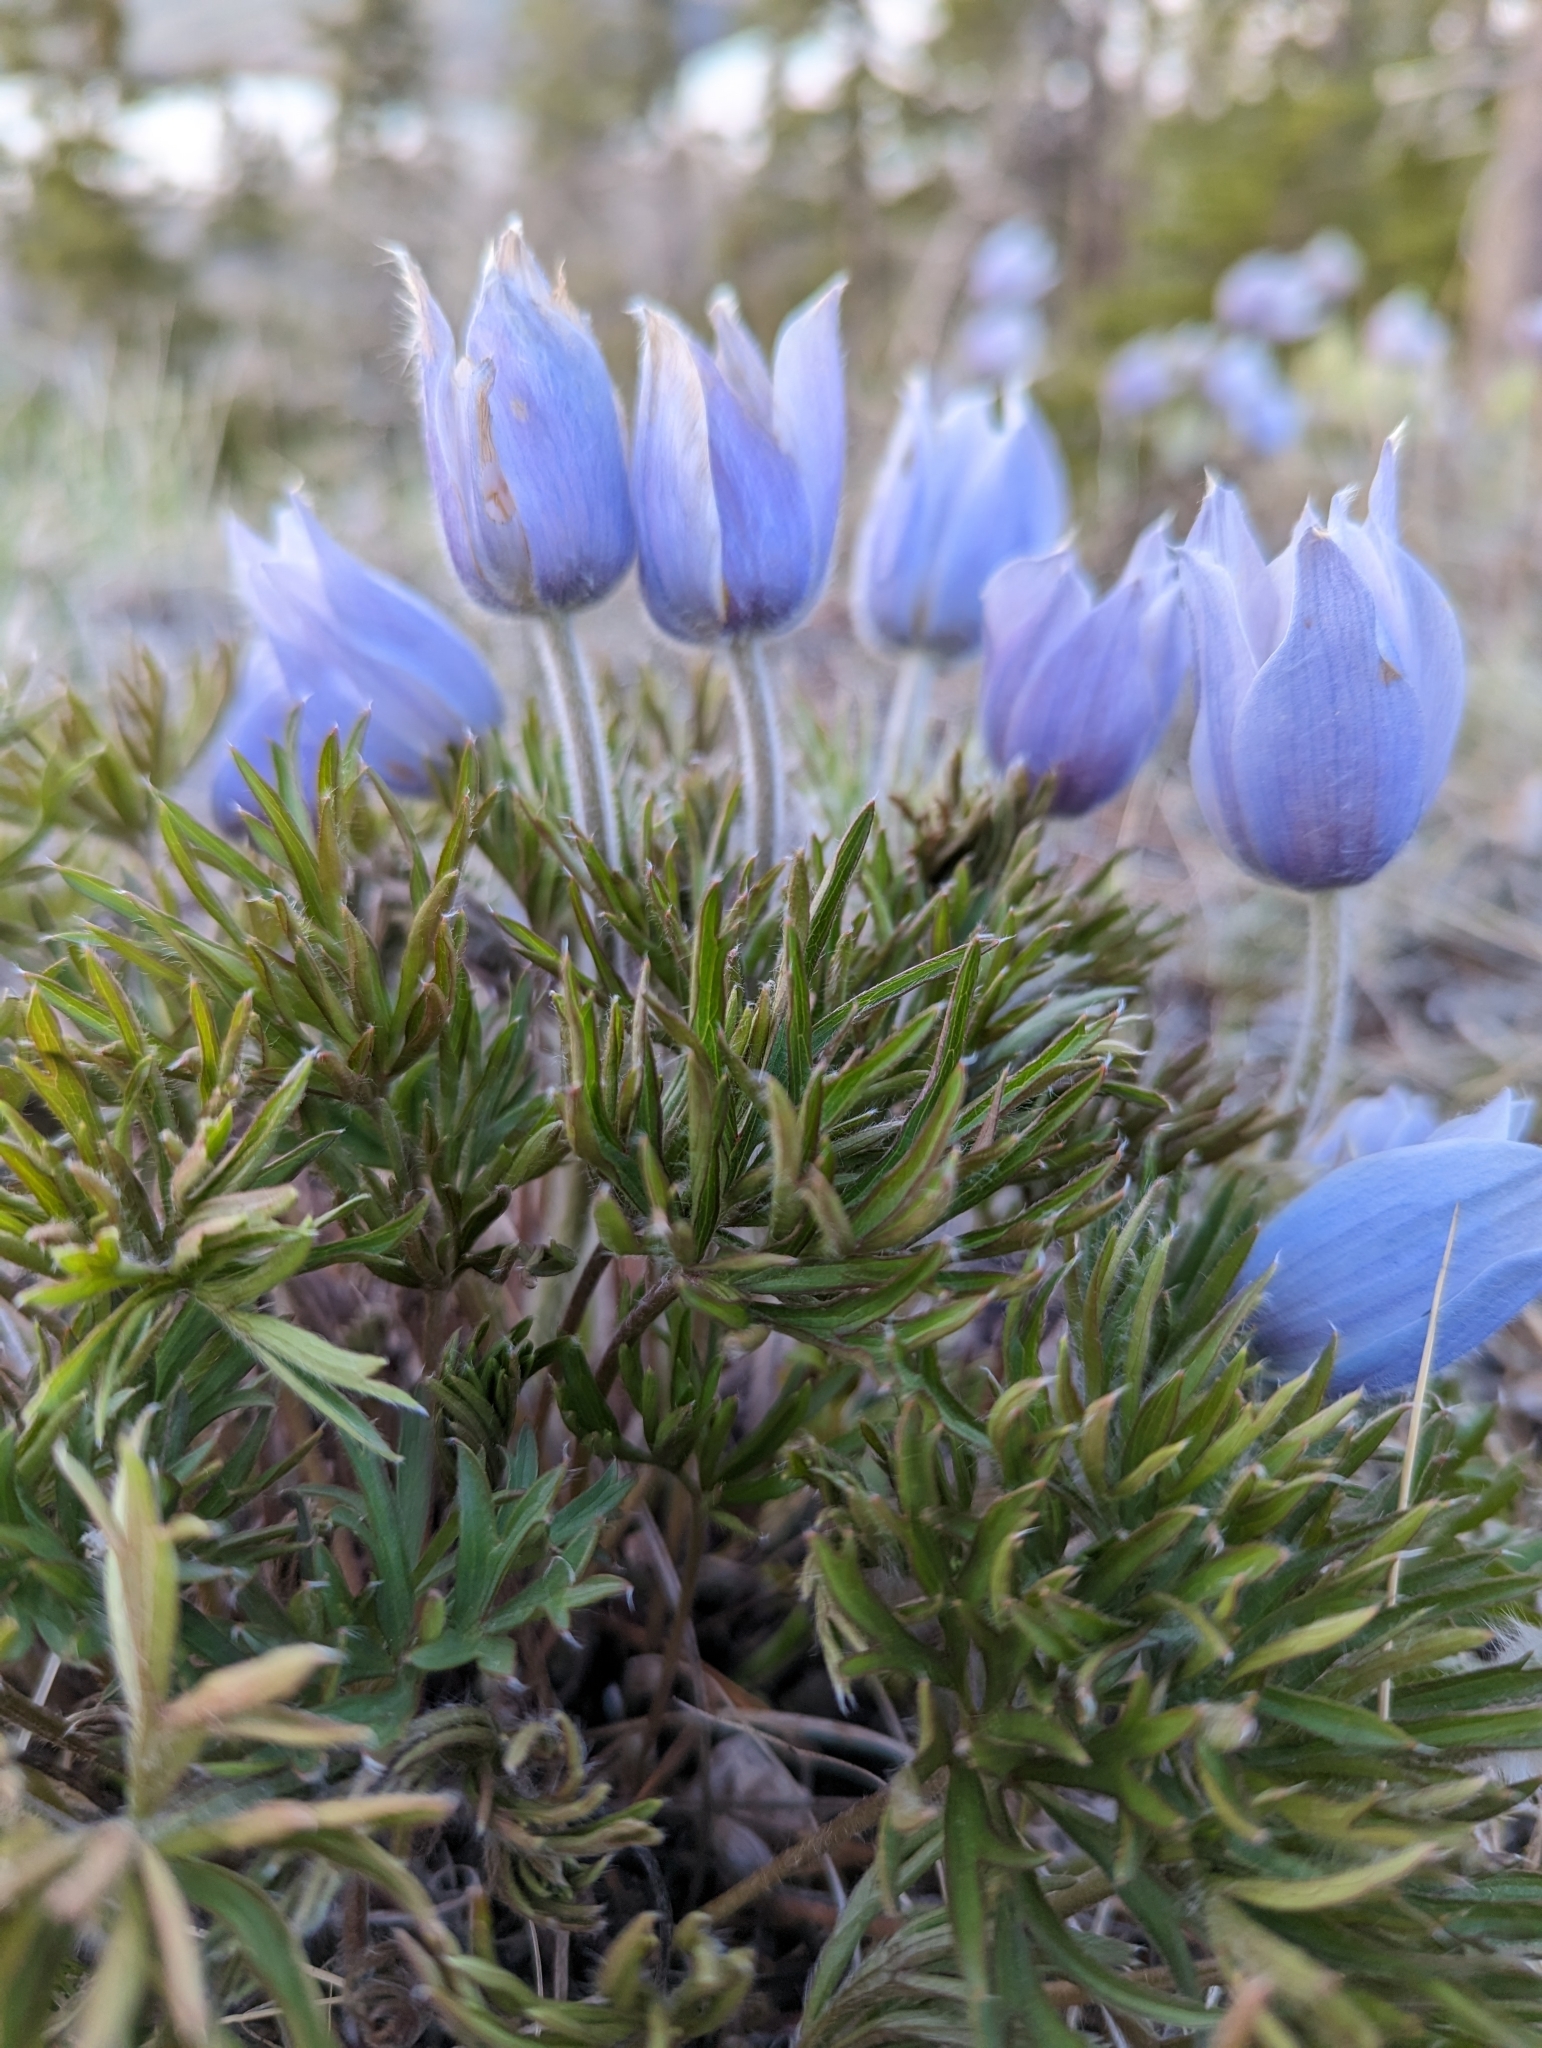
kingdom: Plantae
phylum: Tracheophyta
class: Magnoliopsida
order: Ranunculales
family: Ranunculaceae
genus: Pulsatilla
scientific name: Pulsatilla nuttalliana
